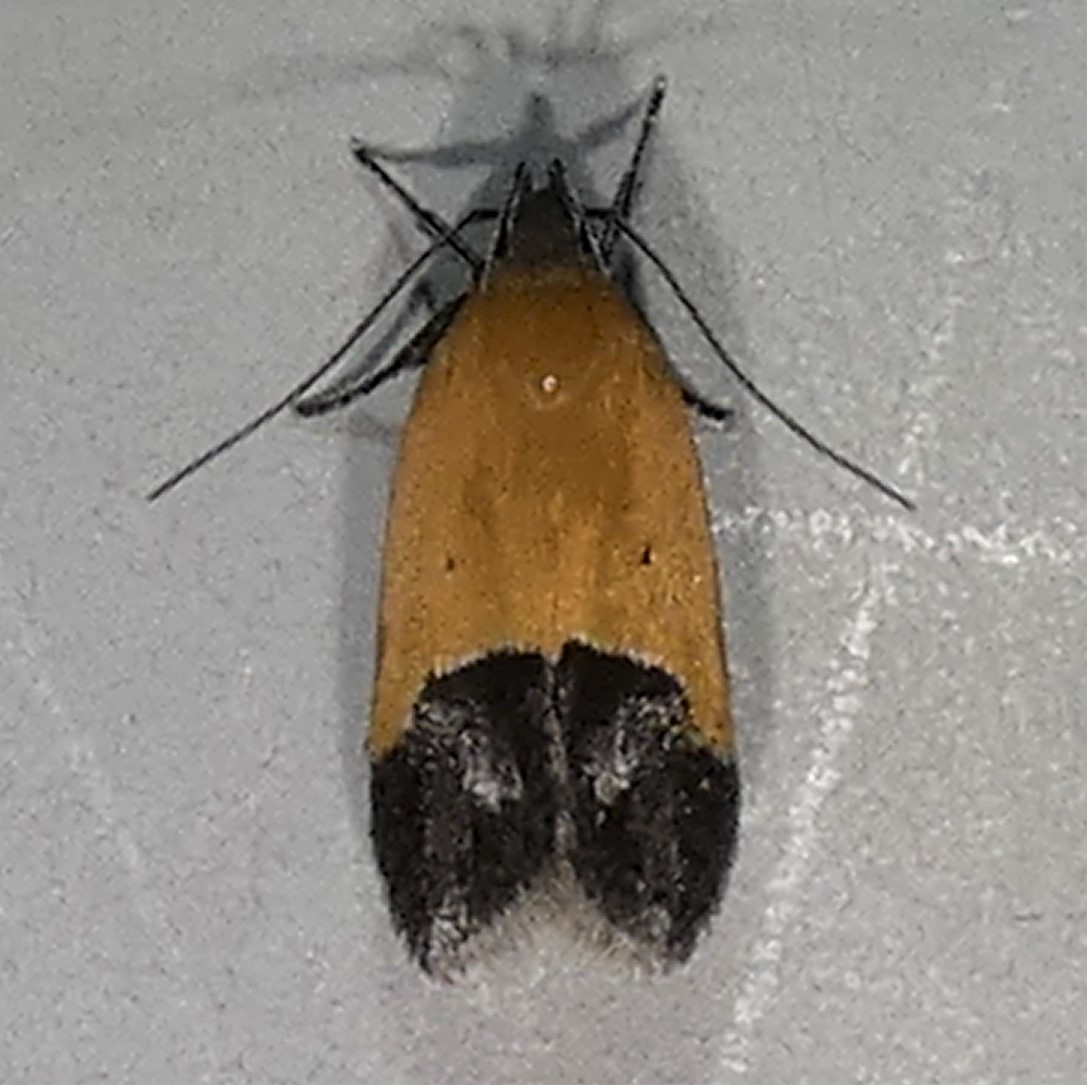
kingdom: Animalia
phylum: Arthropoda
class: Insecta
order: Lepidoptera
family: Momphidae
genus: Triclonella
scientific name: Triclonella pergandeella
